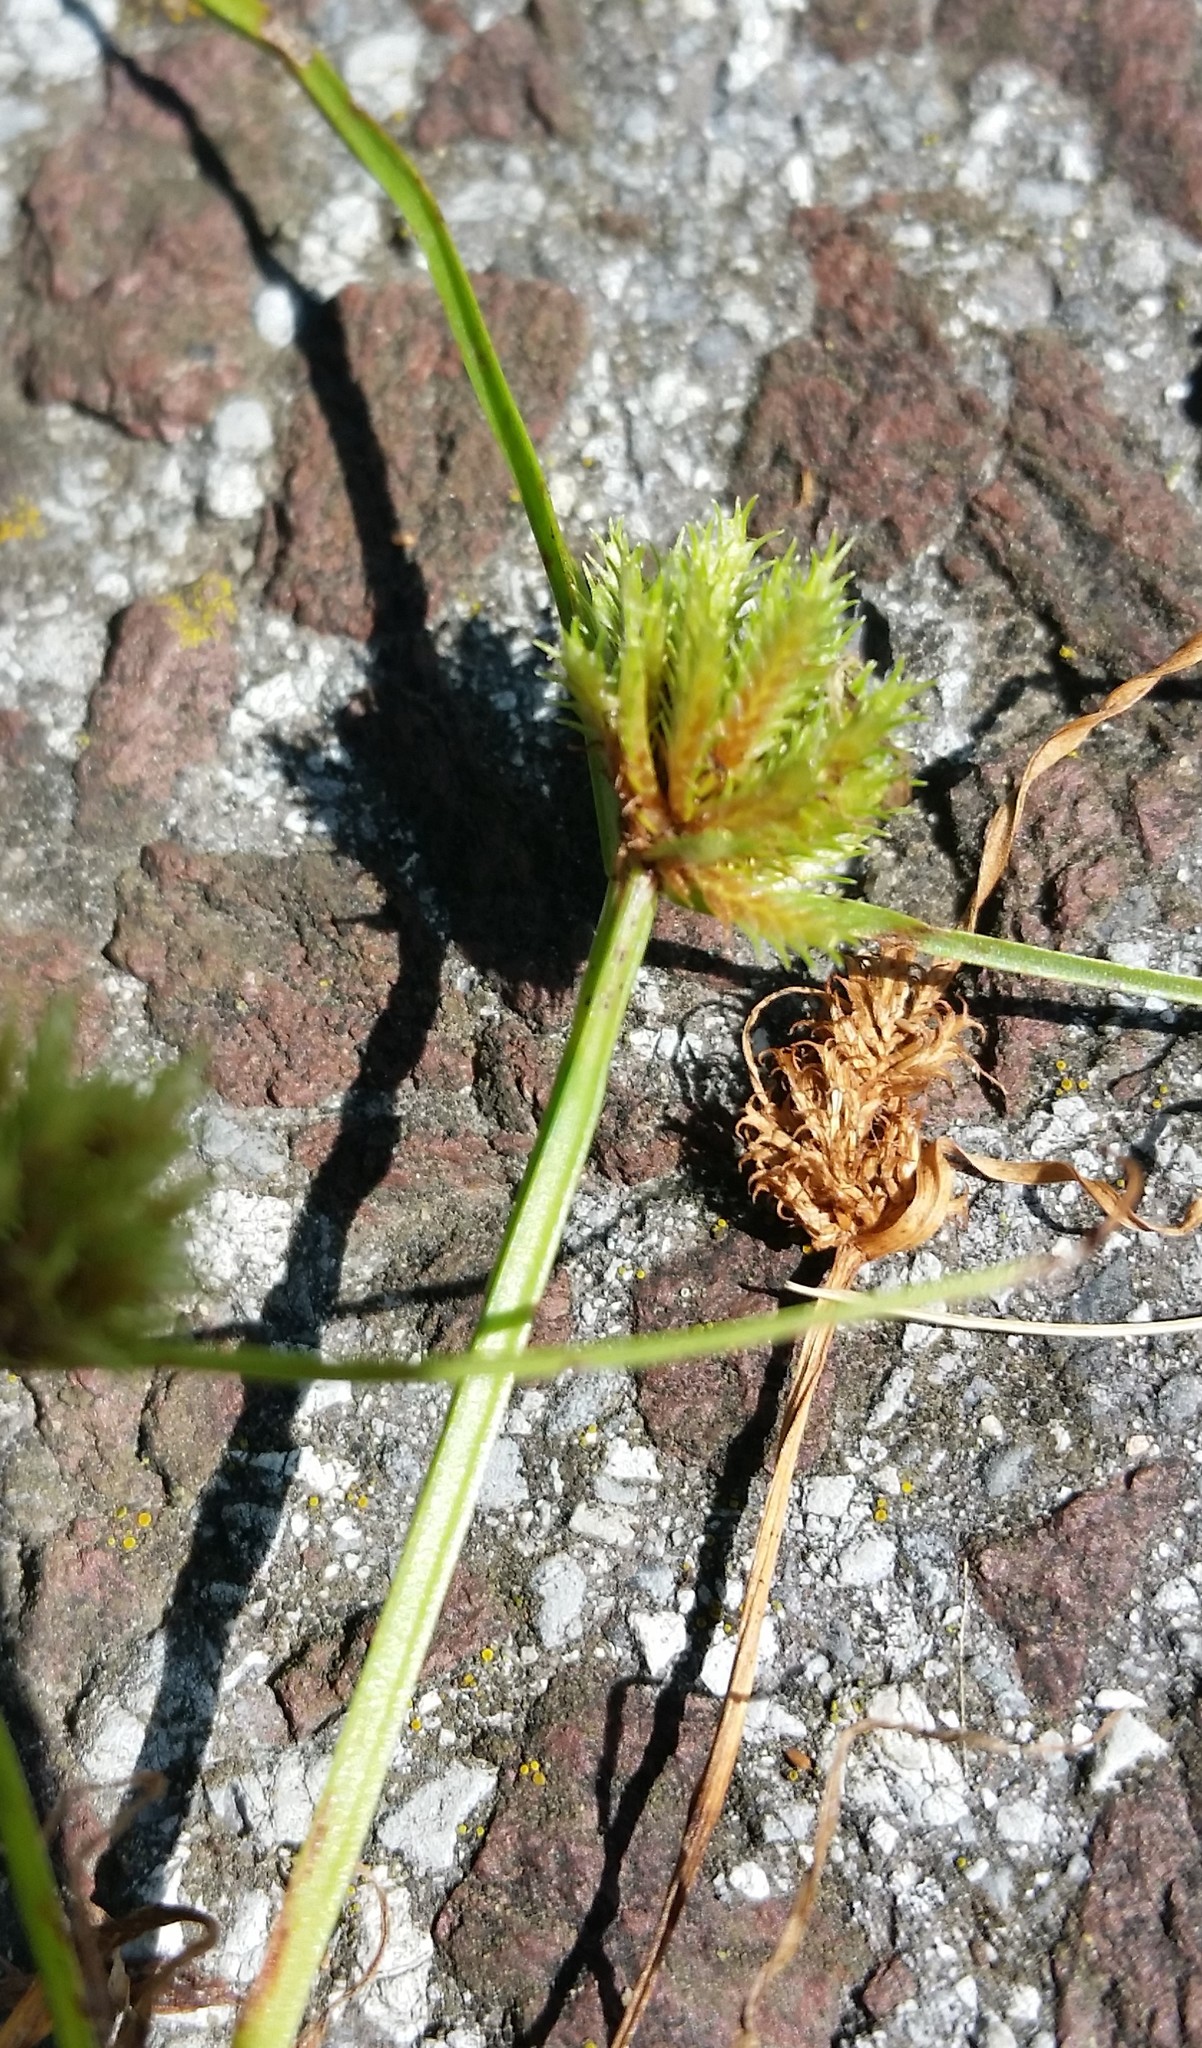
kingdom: Plantae
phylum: Tracheophyta
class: Liliopsida
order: Poales
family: Cyperaceae
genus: Cyperus
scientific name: Cyperus squarrosus
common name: Awned cyperus
